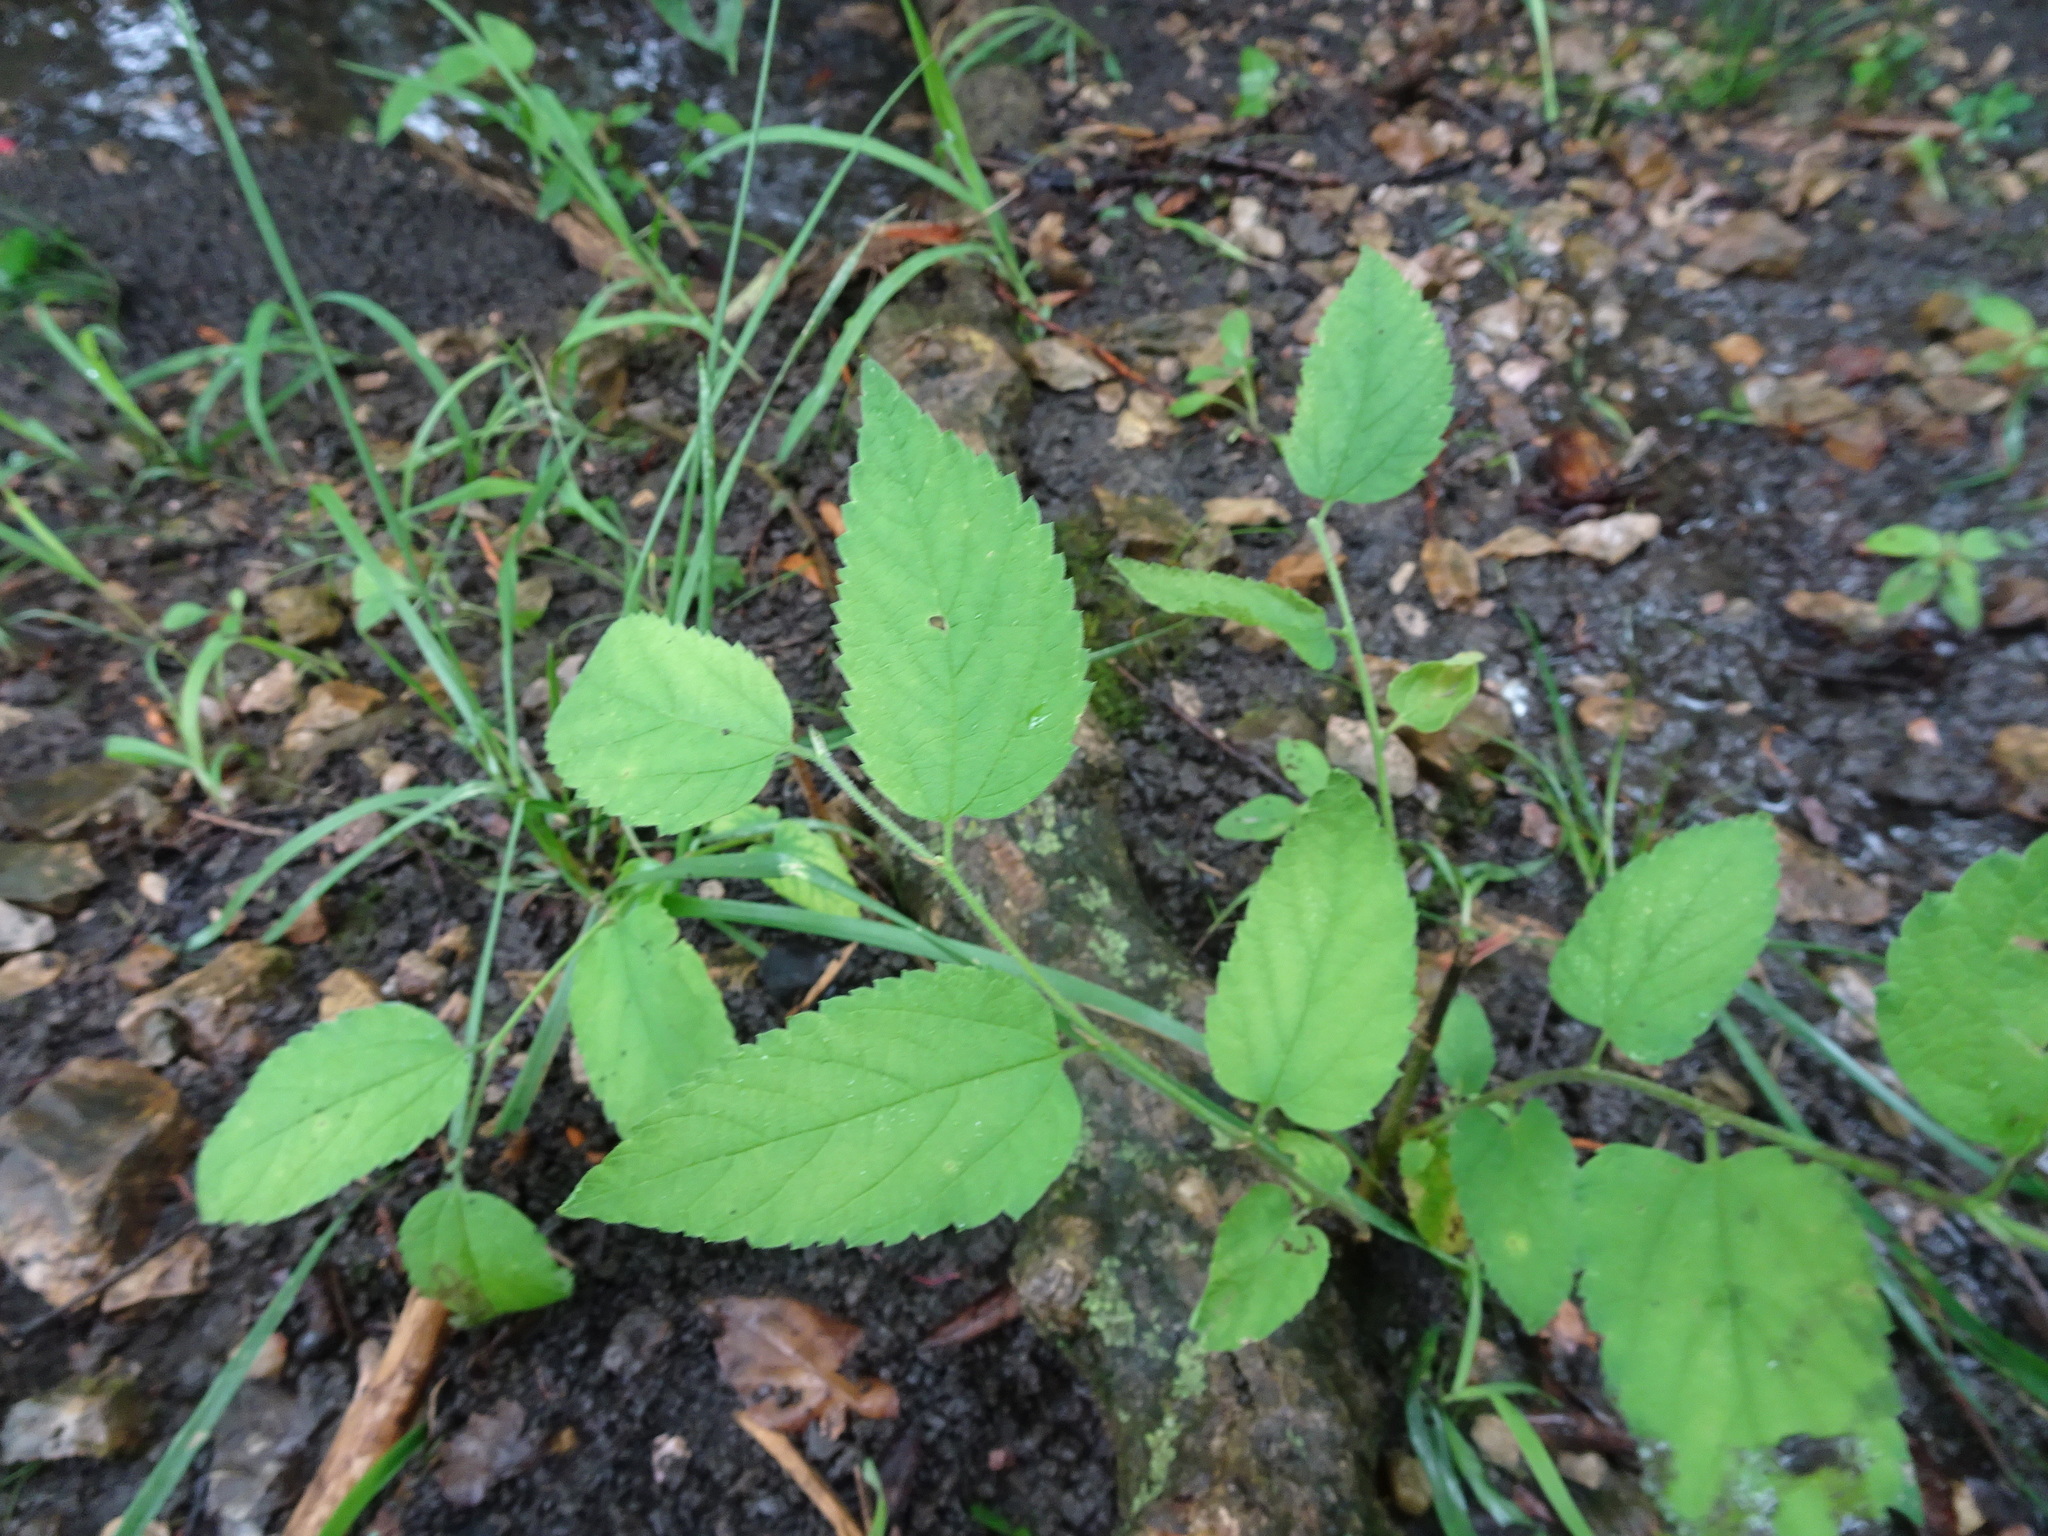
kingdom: Plantae
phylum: Tracheophyta
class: Magnoliopsida
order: Rosales
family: Cannabaceae
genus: Celtis
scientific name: Celtis occidentalis
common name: Common hackberry
